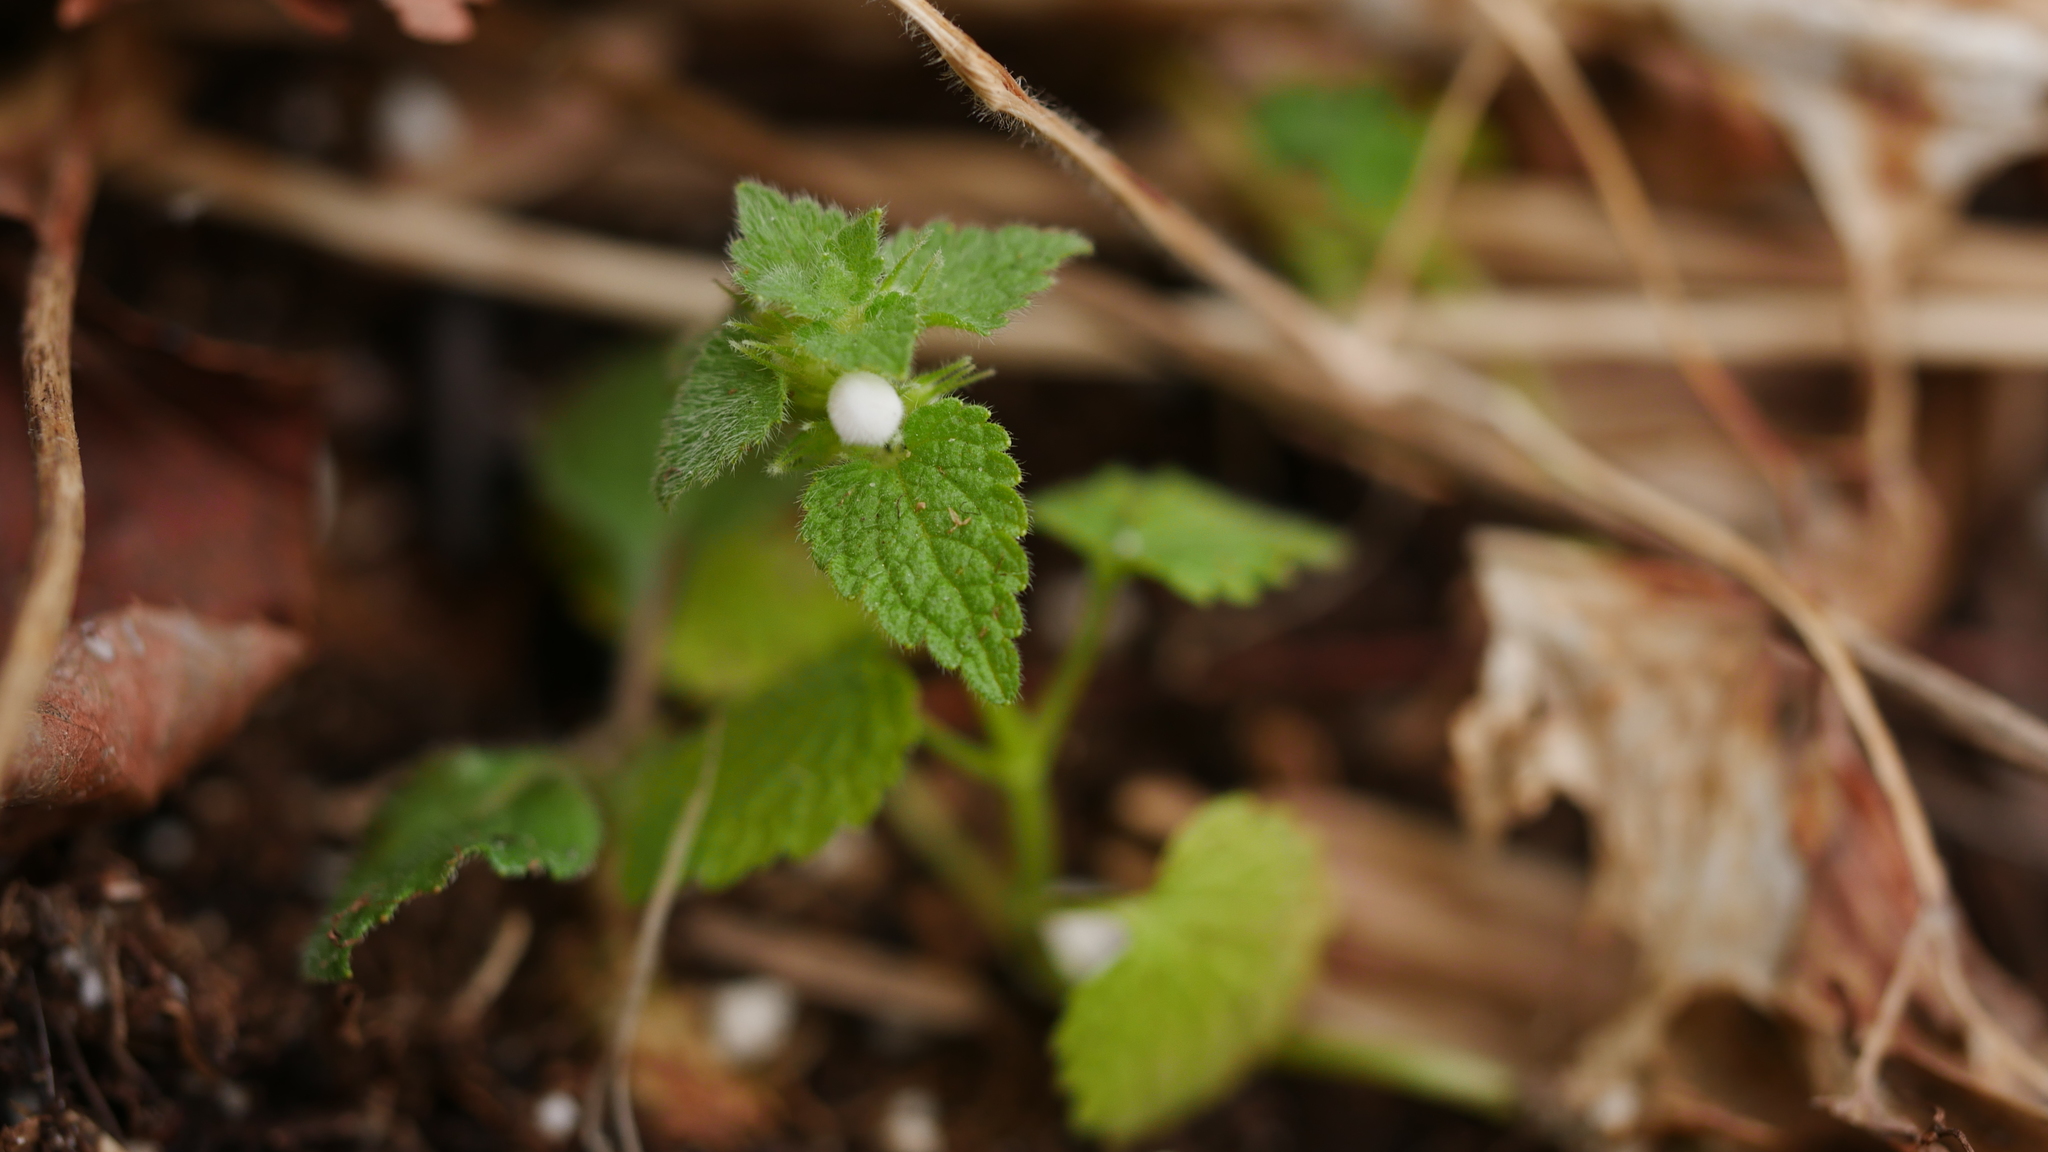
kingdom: Plantae
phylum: Tracheophyta
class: Magnoliopsida
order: Lamiales
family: Lamiaceae
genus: Lamium
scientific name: Lamium purpureum
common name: Red dead-nettle
